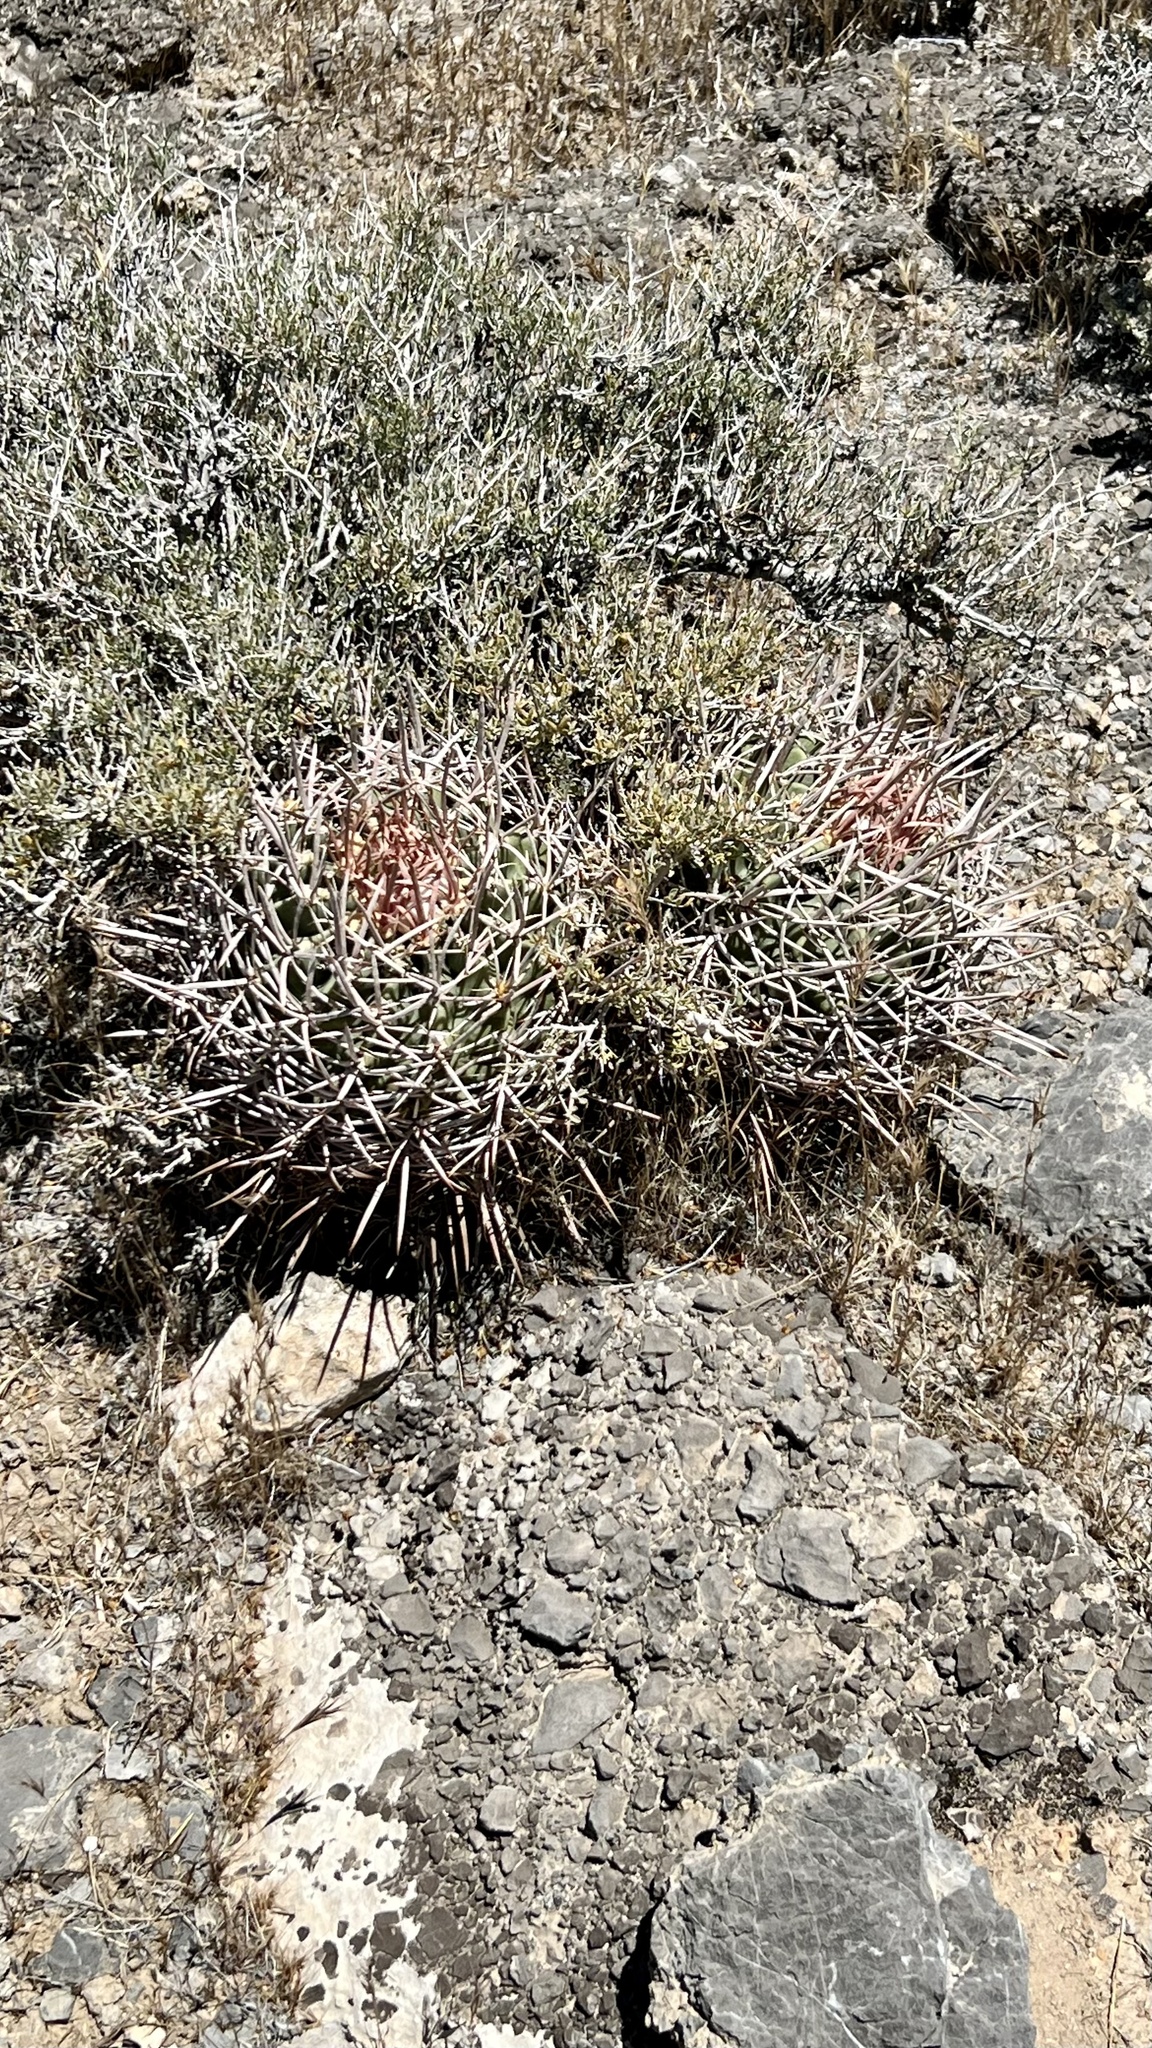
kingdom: Plantae
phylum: Tracheophyta
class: Magnoliopsida
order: Caryophyllales
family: Cactaceae
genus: Echinocactus
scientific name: Echinocactus polycephalus
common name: Cottontop cactus
